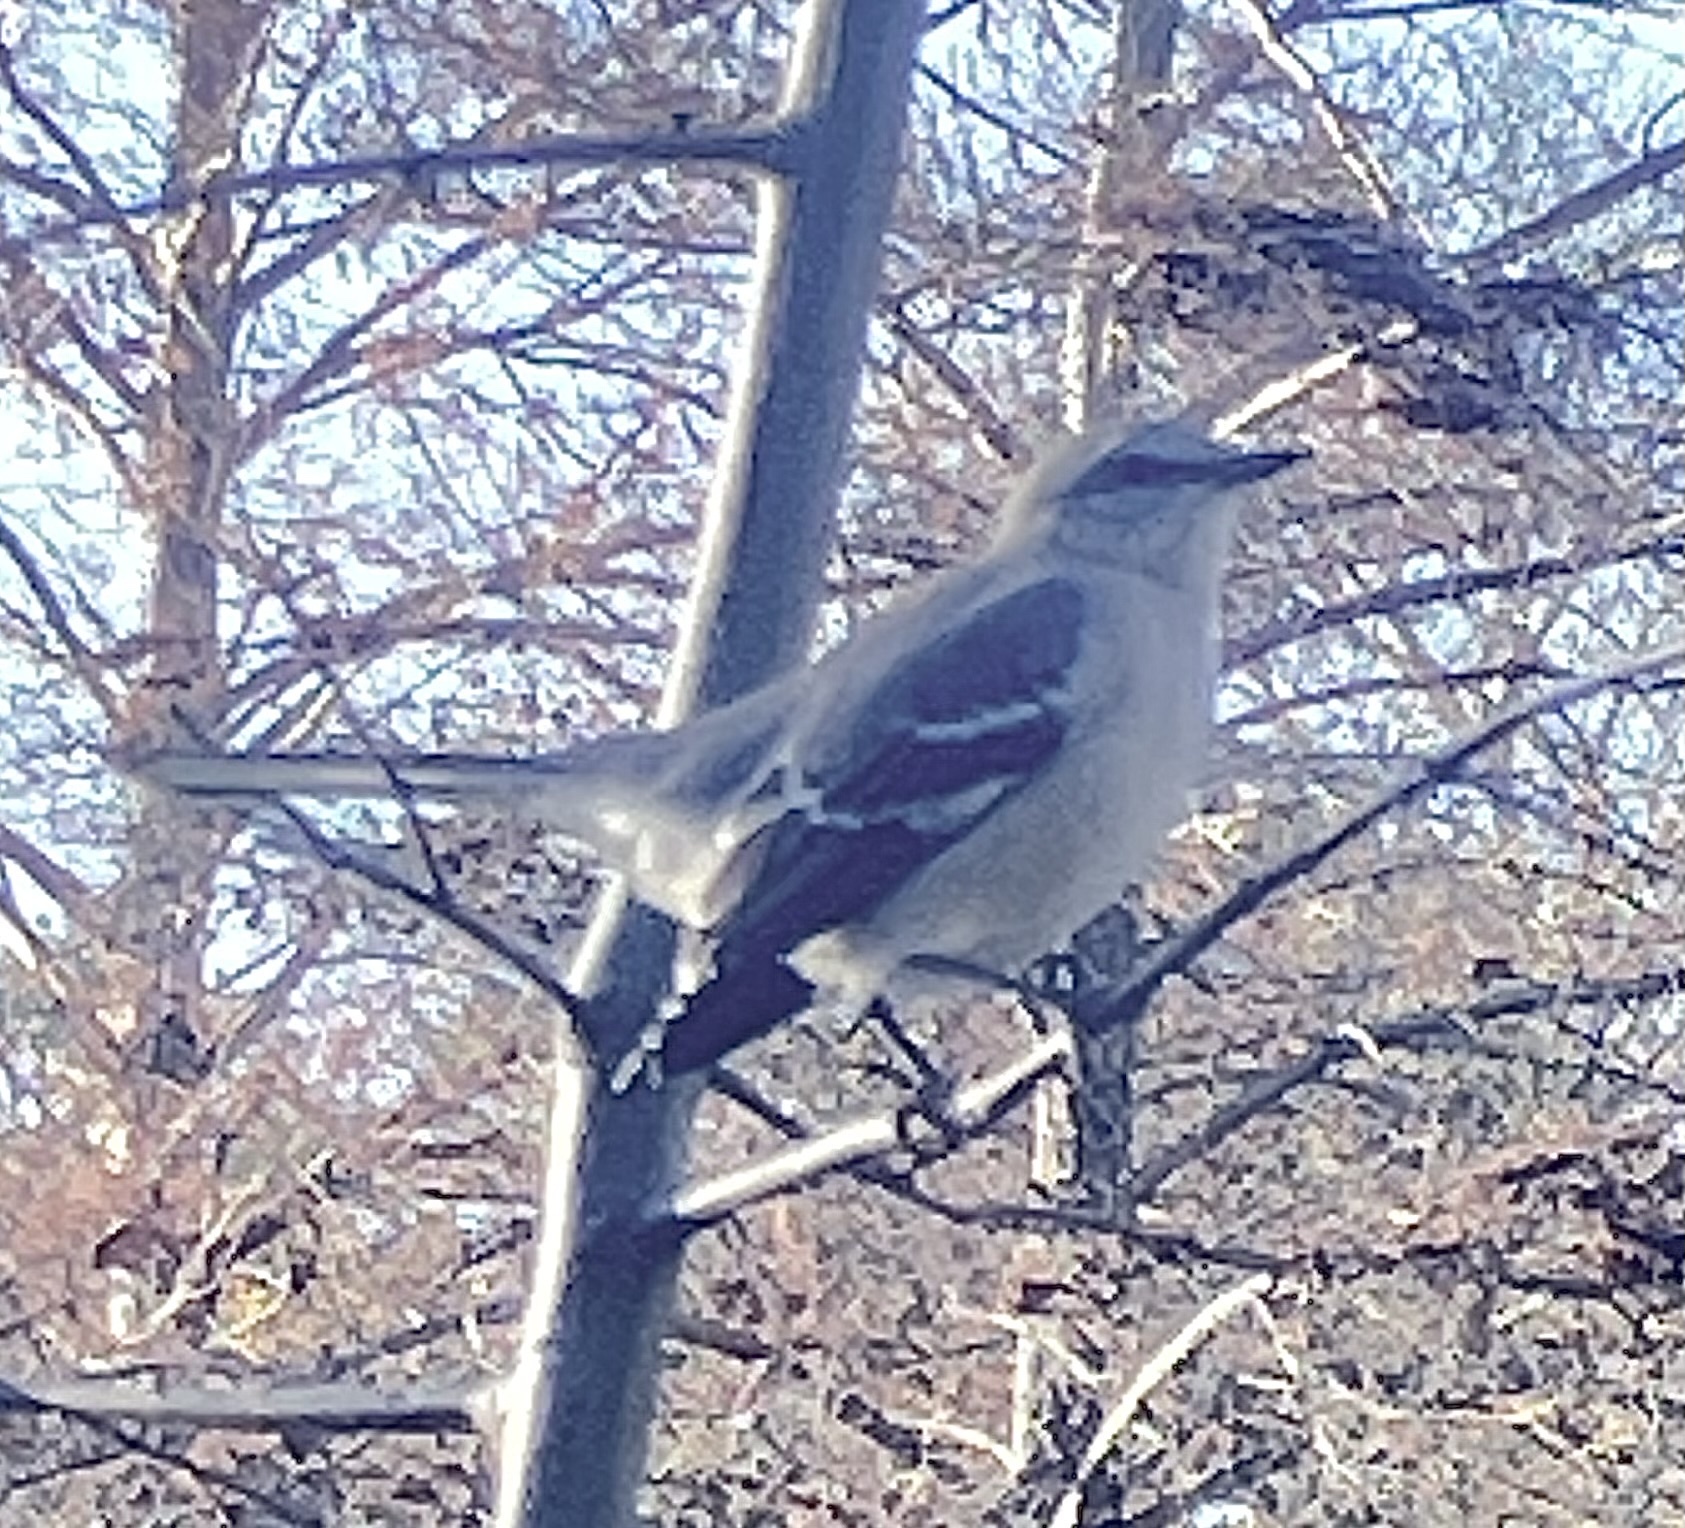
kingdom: Animalia
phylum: Chordata
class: Aves
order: Passeriformes
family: Mimidae
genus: Mimus
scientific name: Mimus polyglottos
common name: Northern mockingbird
